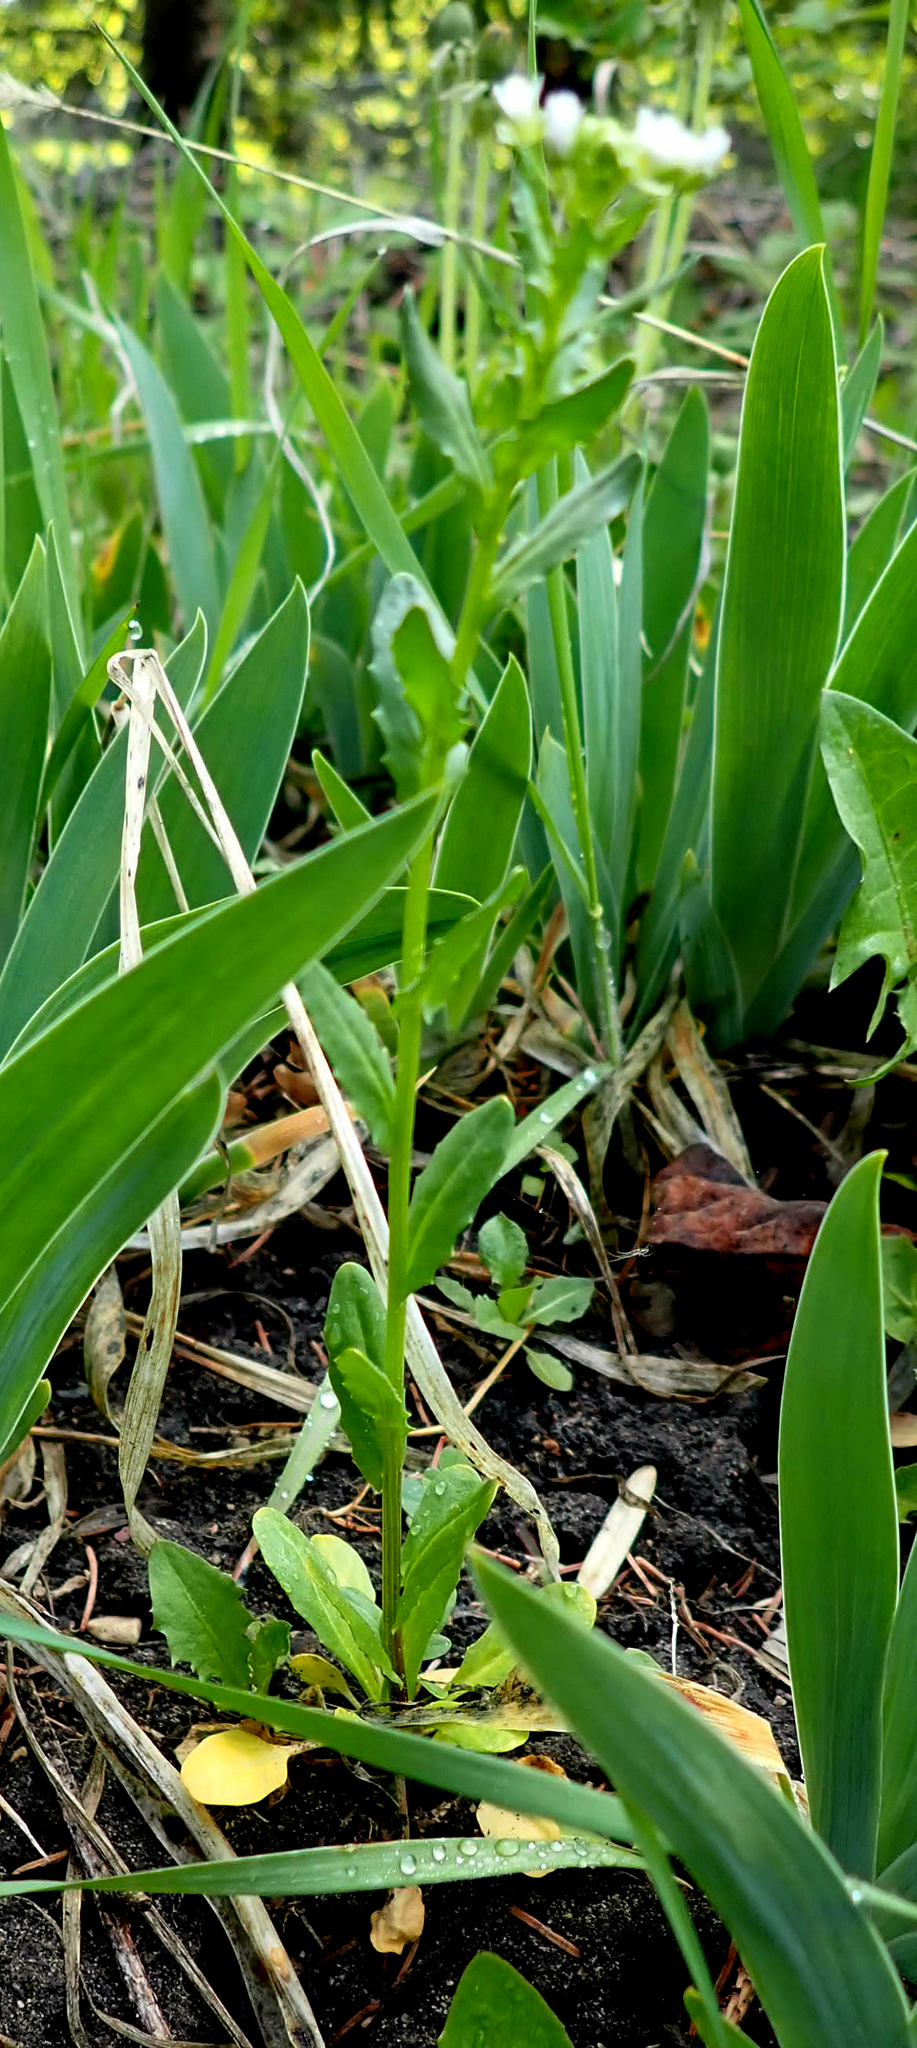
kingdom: Plantae
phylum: Tracheophyta
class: Magnoliopsida
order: Brassicales
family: Brassicaceae
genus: Thlaspi
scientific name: Thlaspi arvense
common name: Field pennycress
